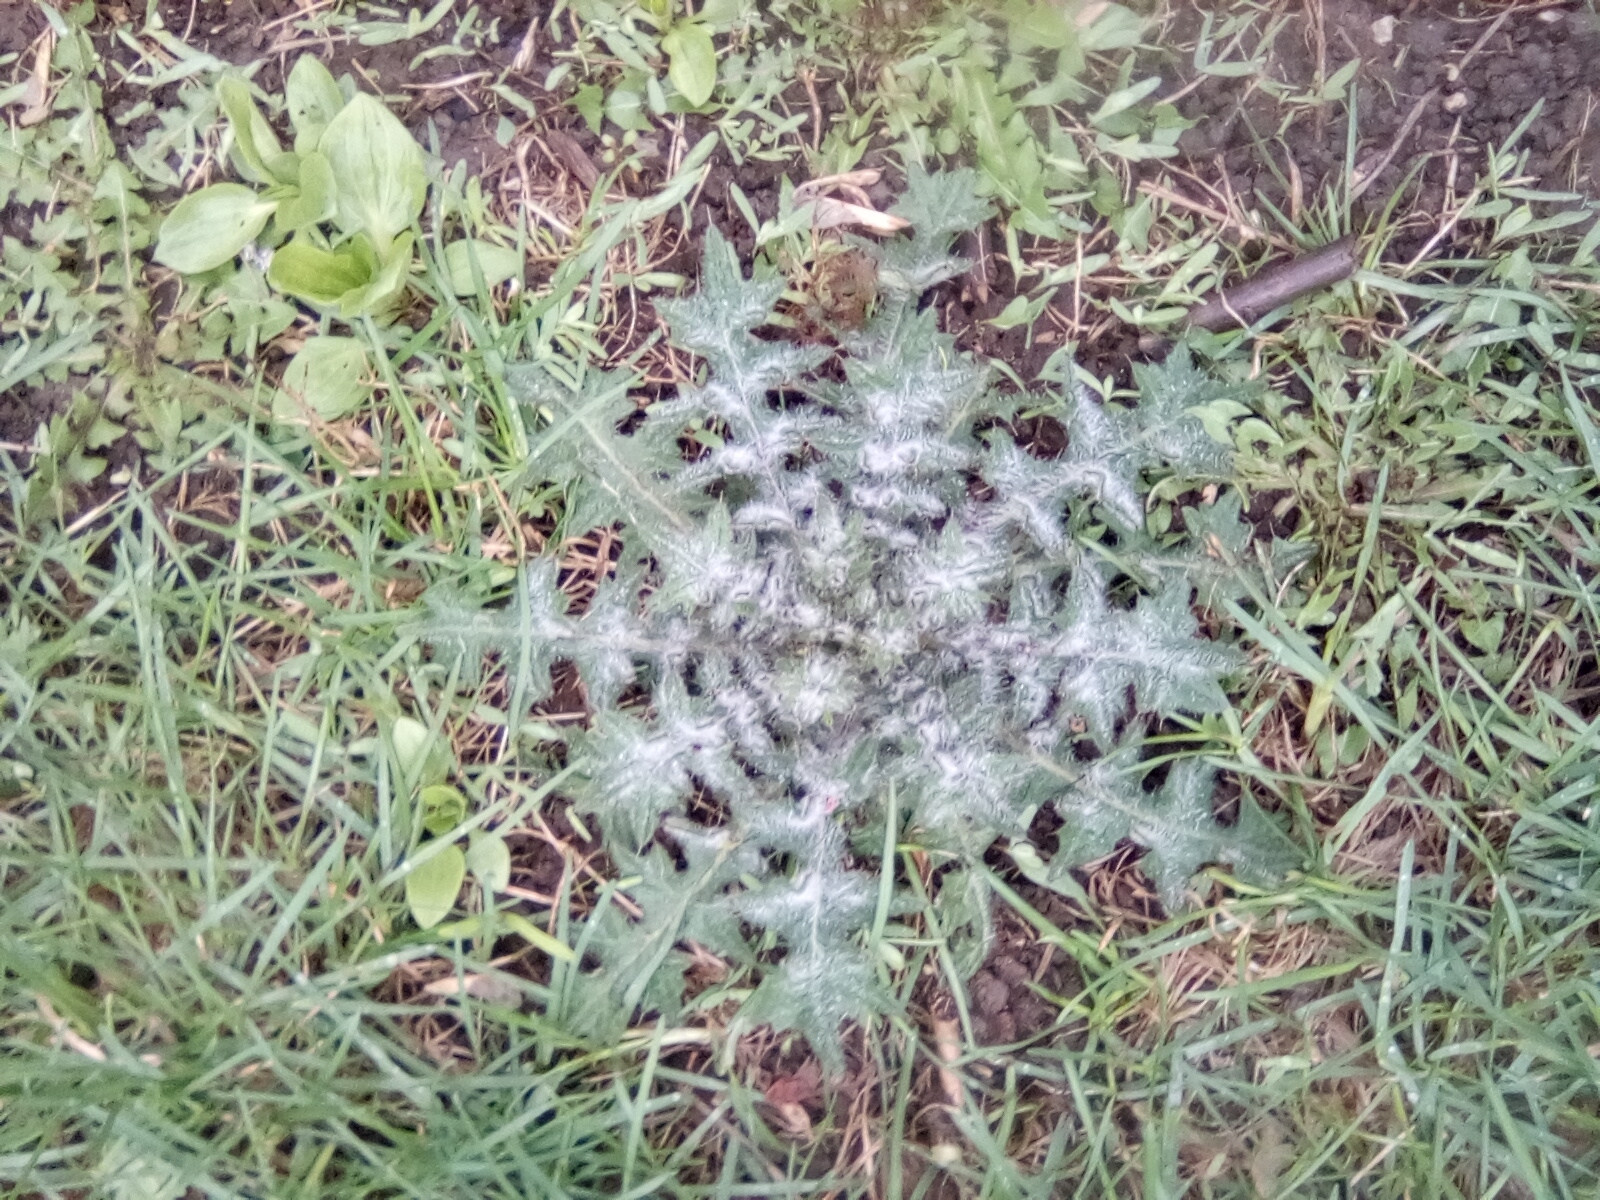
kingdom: Plantae
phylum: Tracheophyta
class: Magnoliopsida
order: Asterales
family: Asteraceae
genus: Cirsium
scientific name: Cirsium vulgare
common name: Bull thistle
